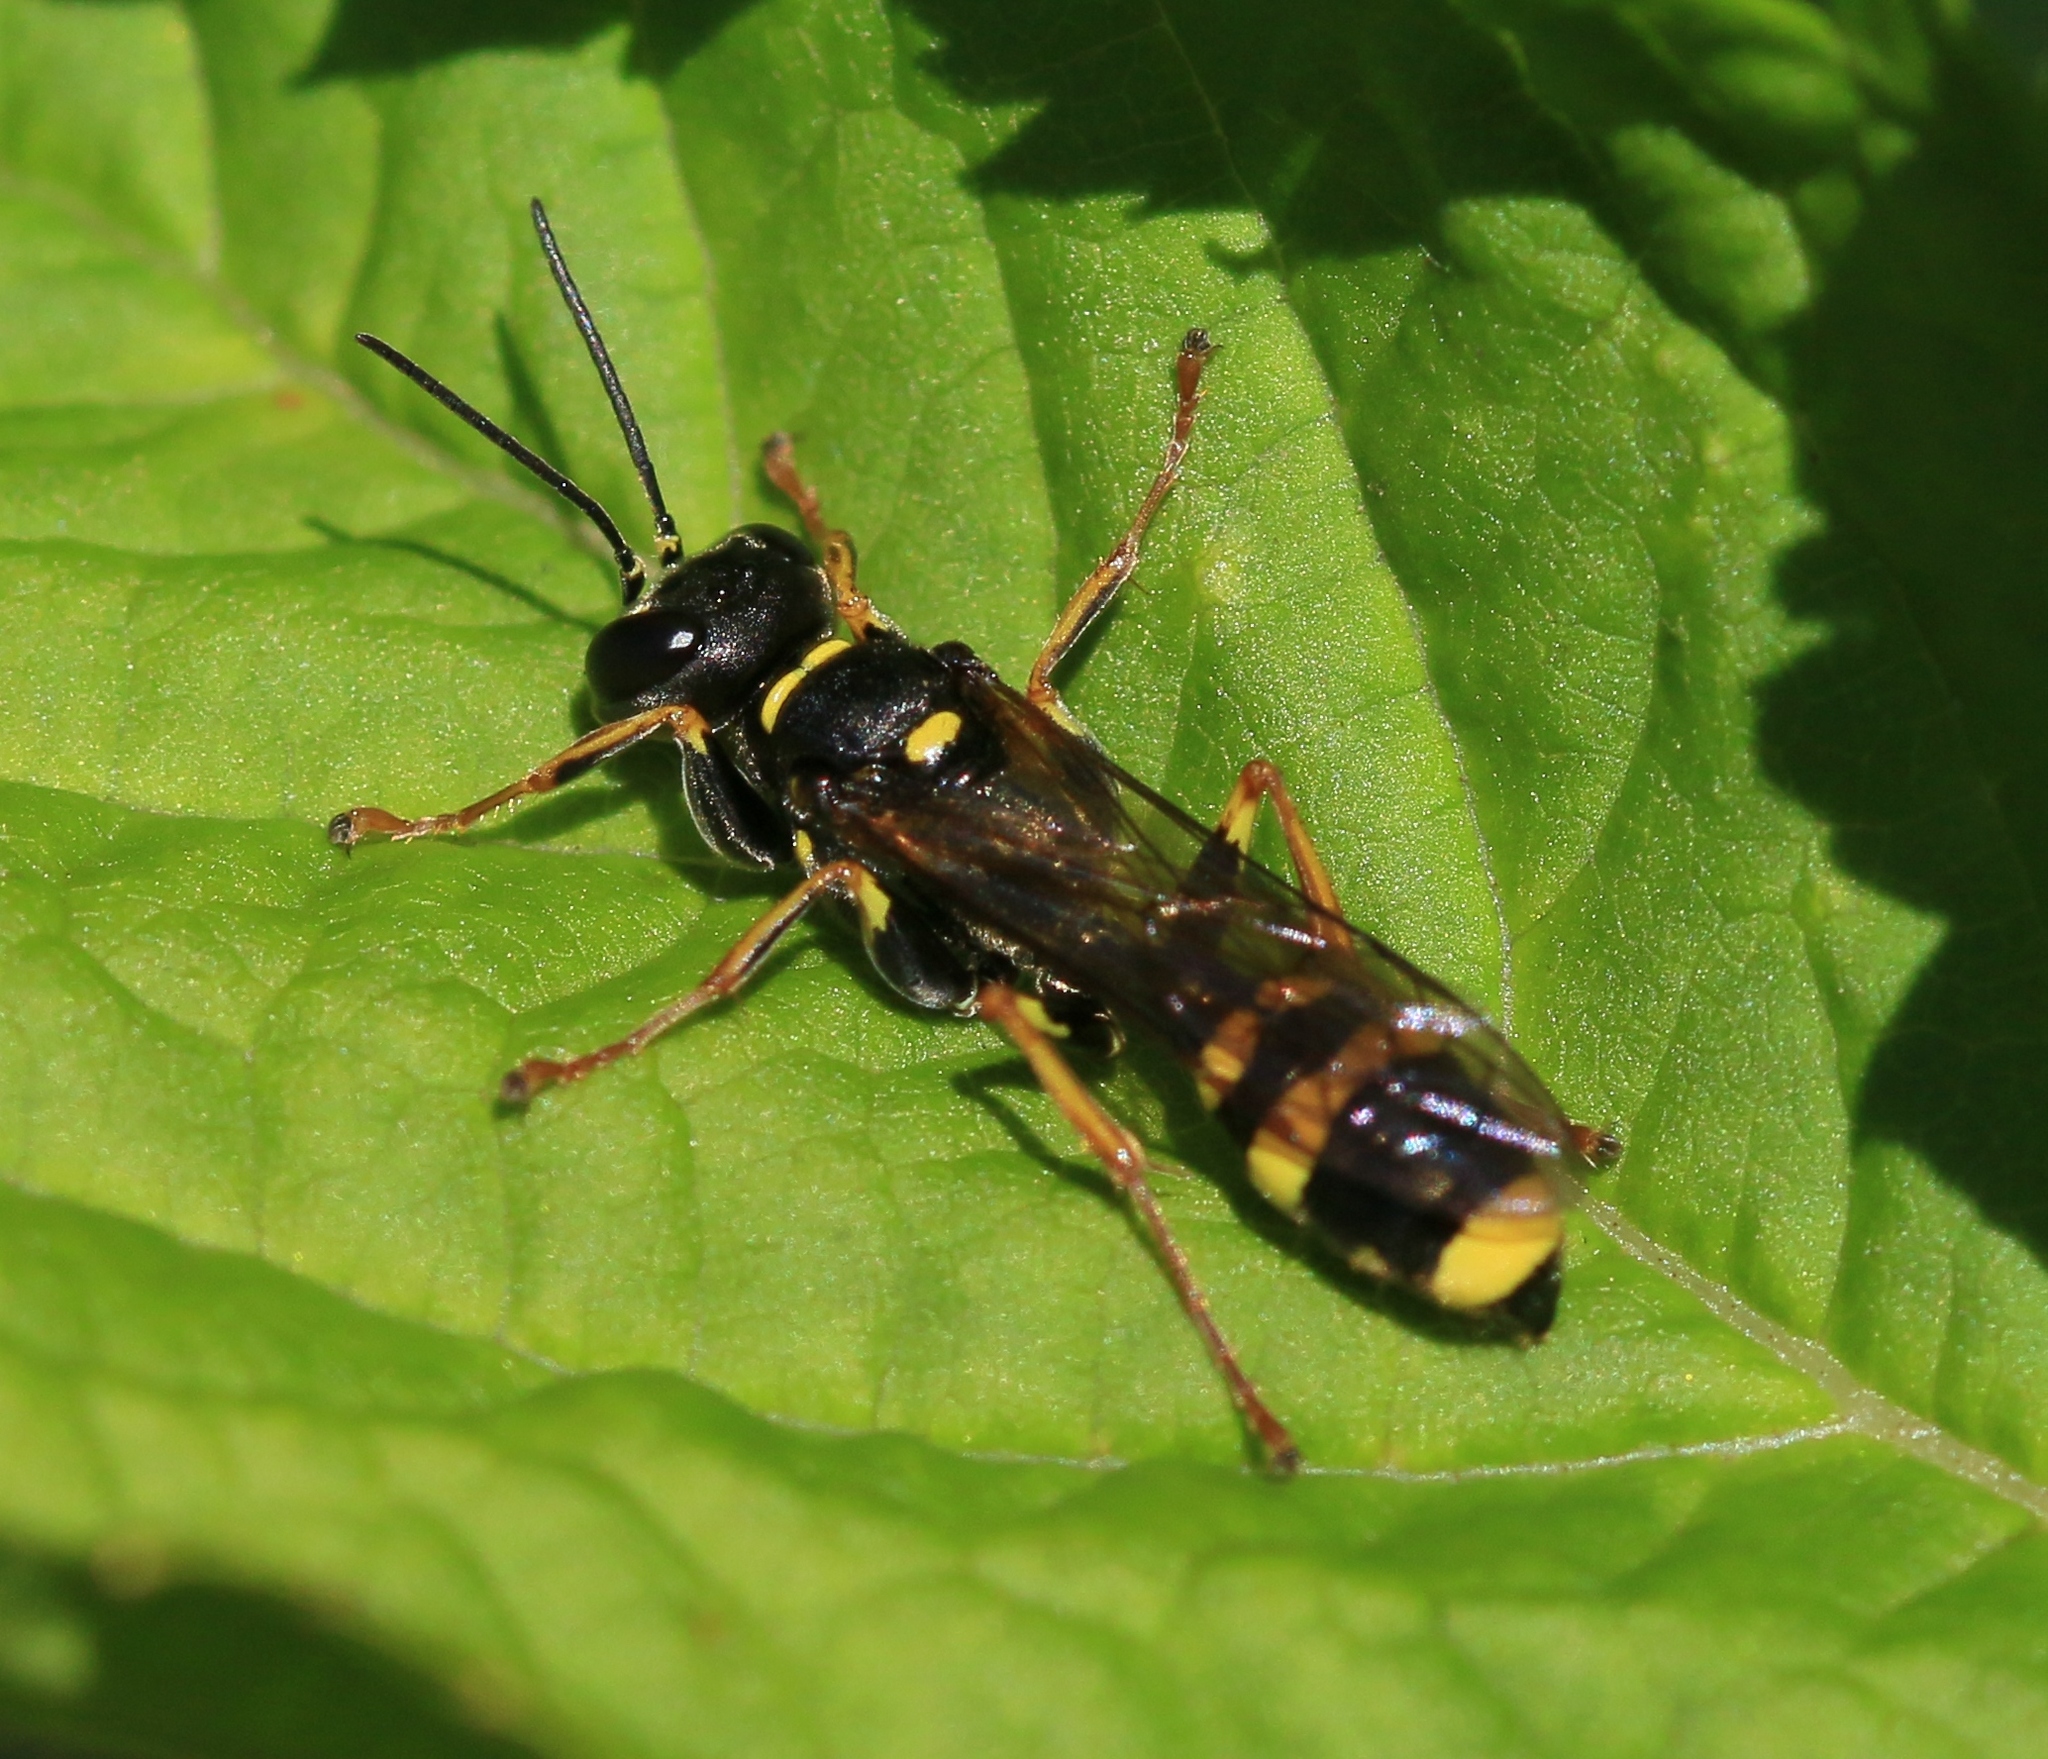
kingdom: Animalia
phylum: Arthropoda
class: Insecta
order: Hymenoptera
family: Crabronidae
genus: Mellinus
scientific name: Mellinus arvensis
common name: Field digger wasp
